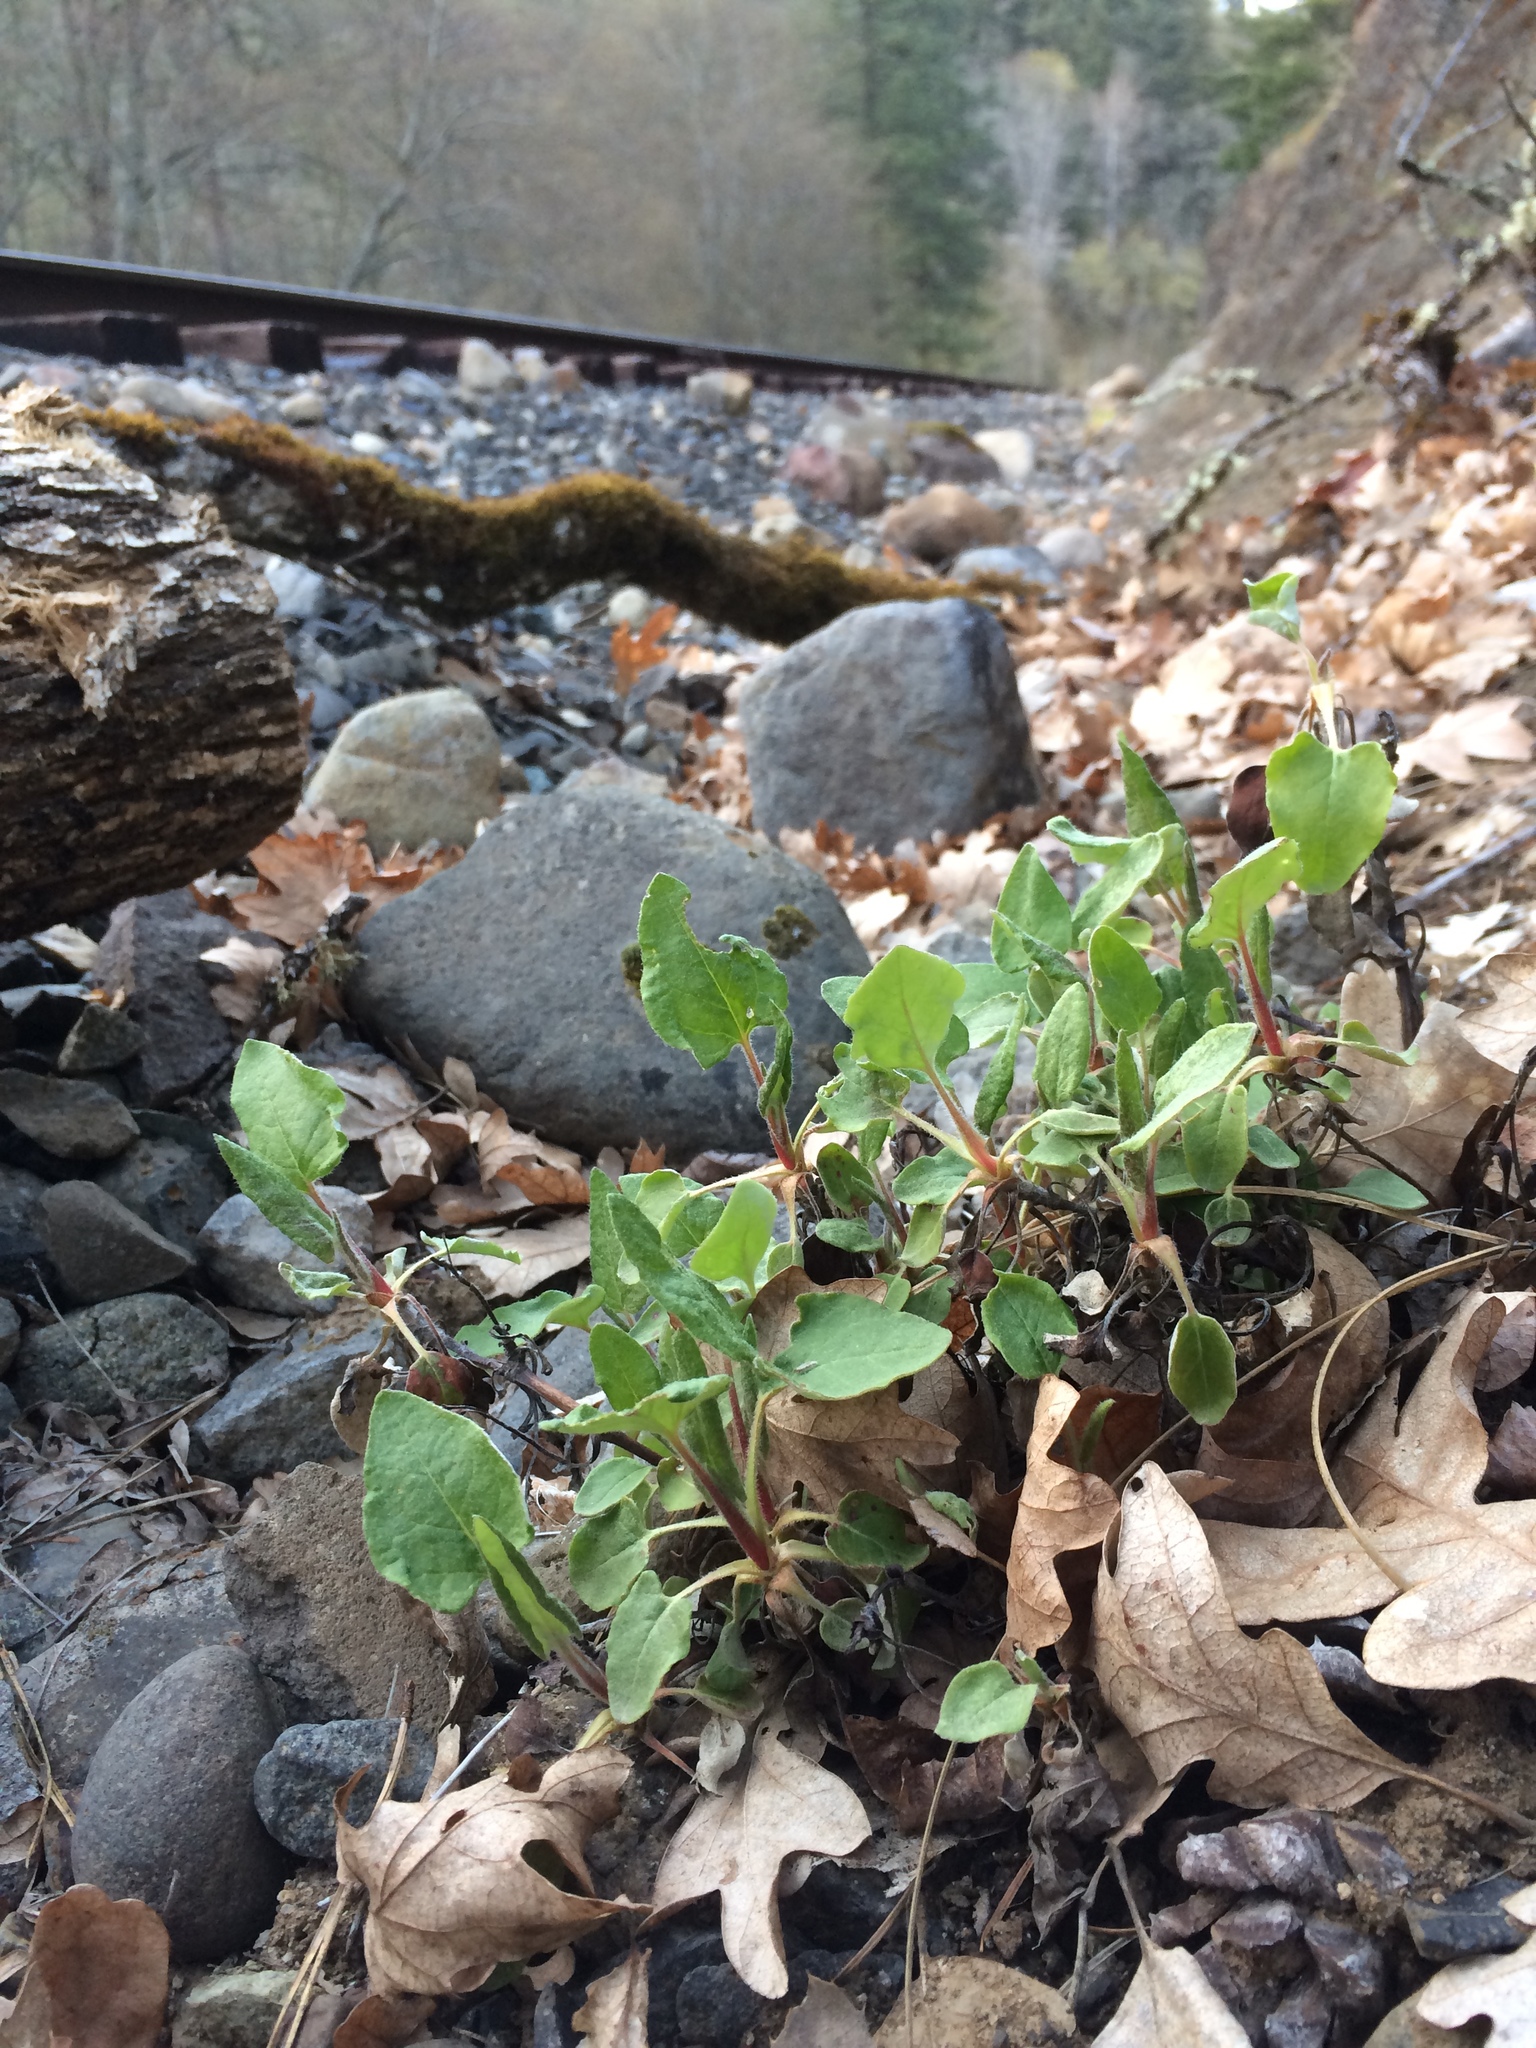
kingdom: Plantae
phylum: Tracheophyta
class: Magnoliopsida
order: Caryophyllales
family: Polygonaceae
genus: Eriogonum
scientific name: Eriogonum compositum
